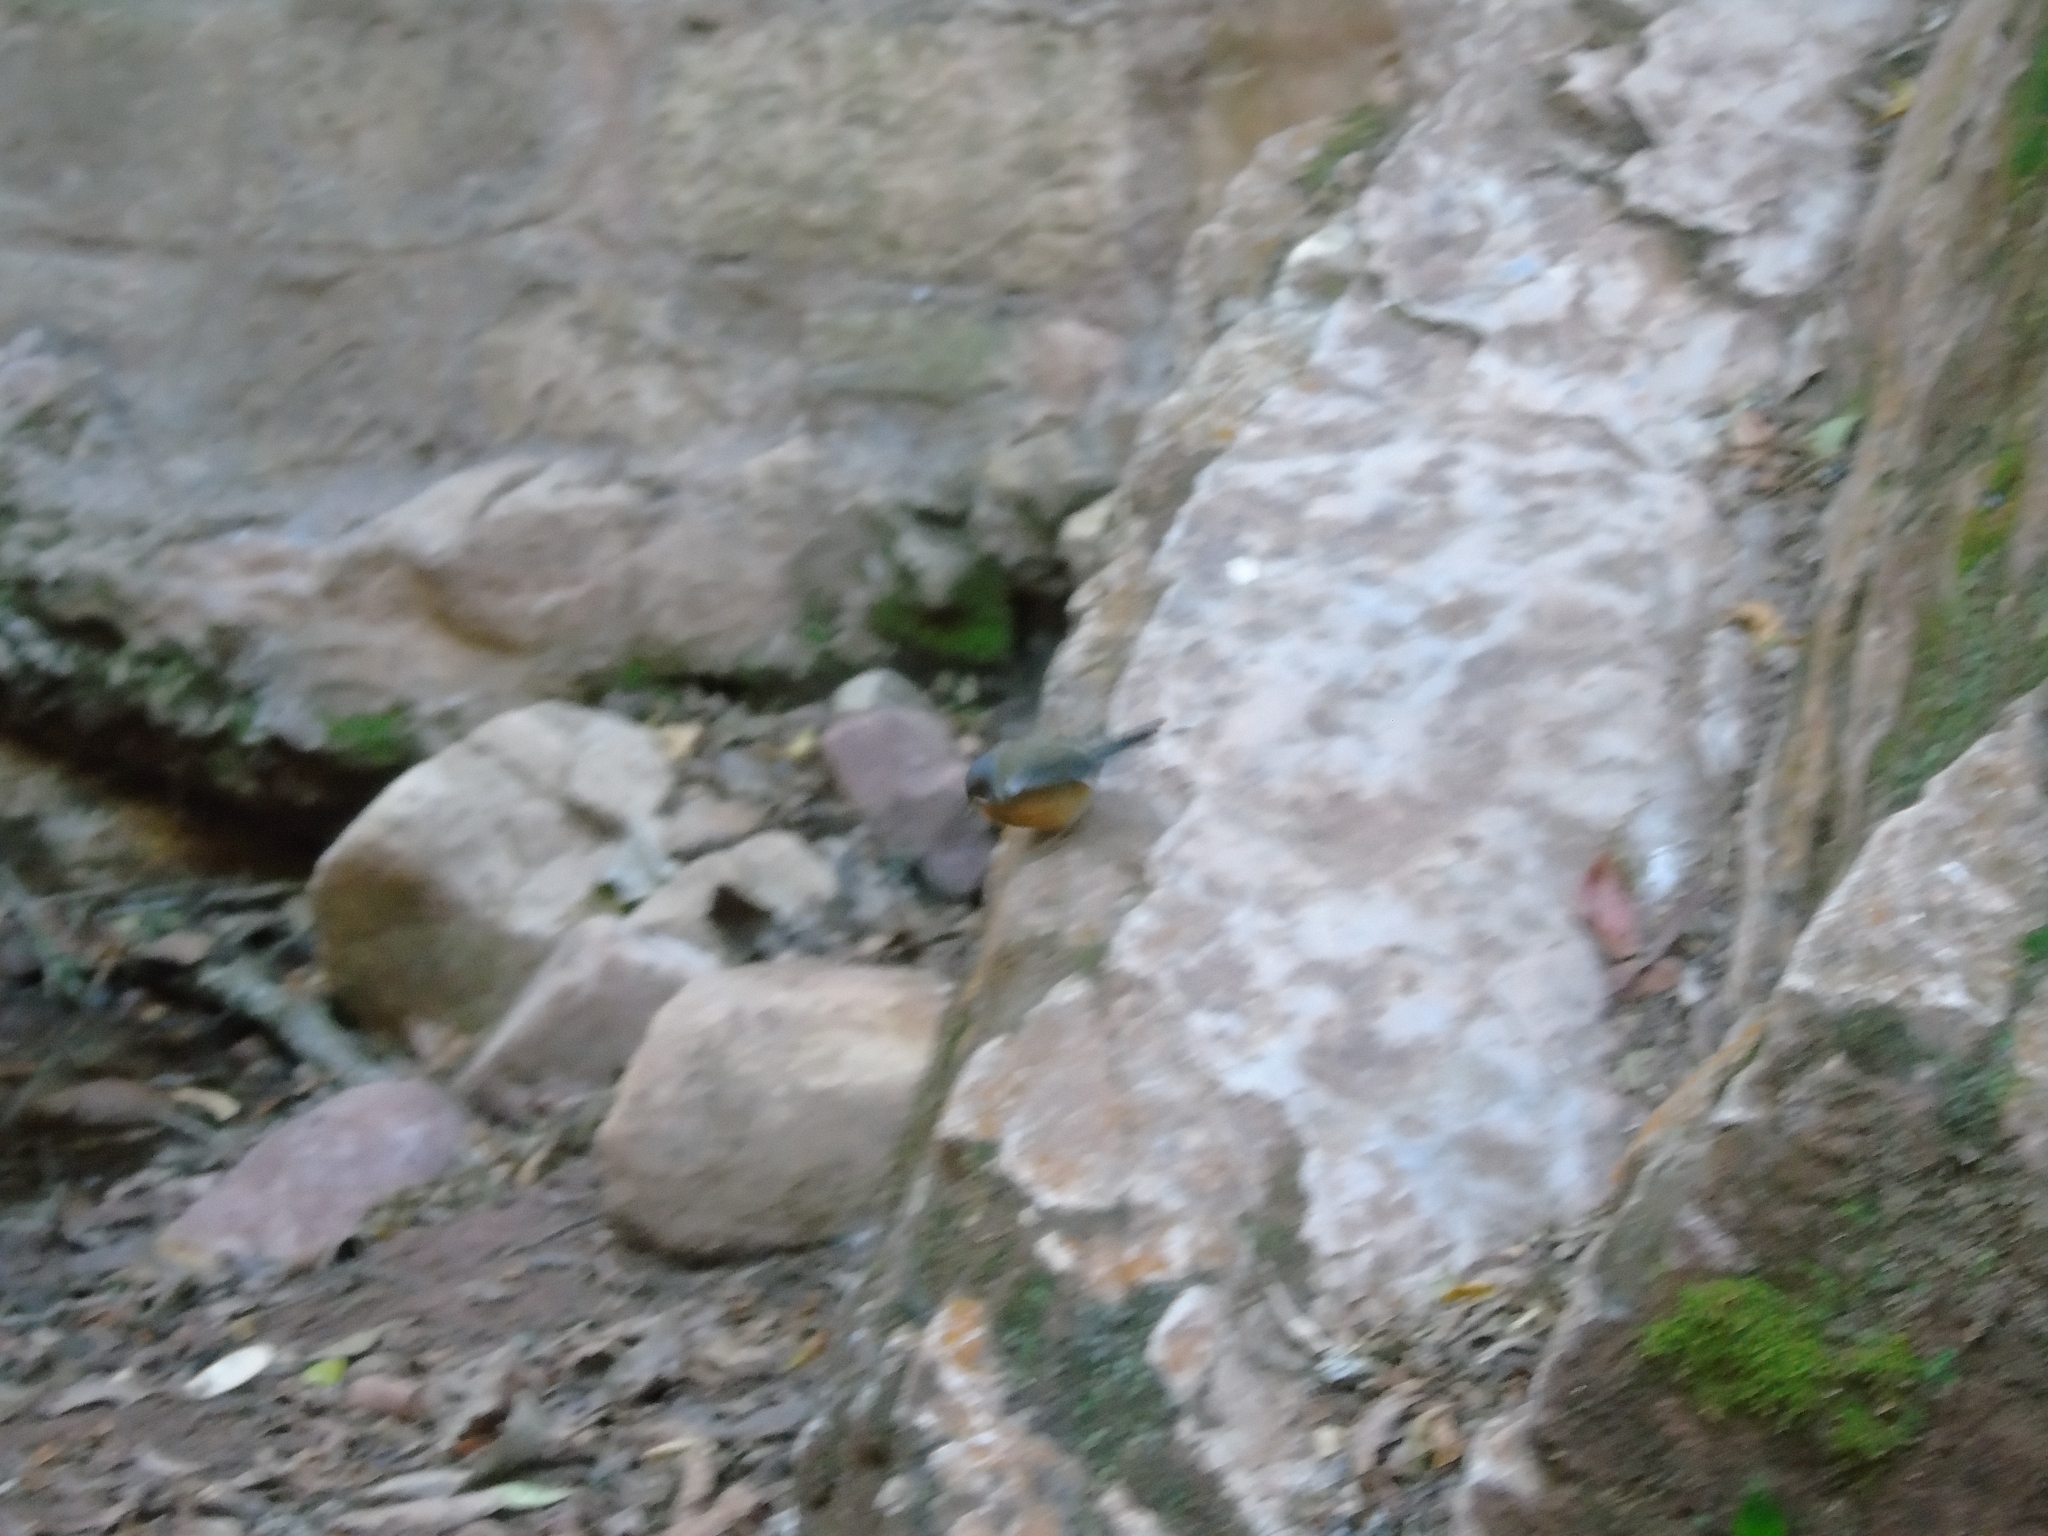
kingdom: Animalia
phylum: Chordata
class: Aves
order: Passeriformes
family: Thraupidae
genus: Diglossa
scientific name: Diglossa sittoides
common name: Rusty flowerpiercer
